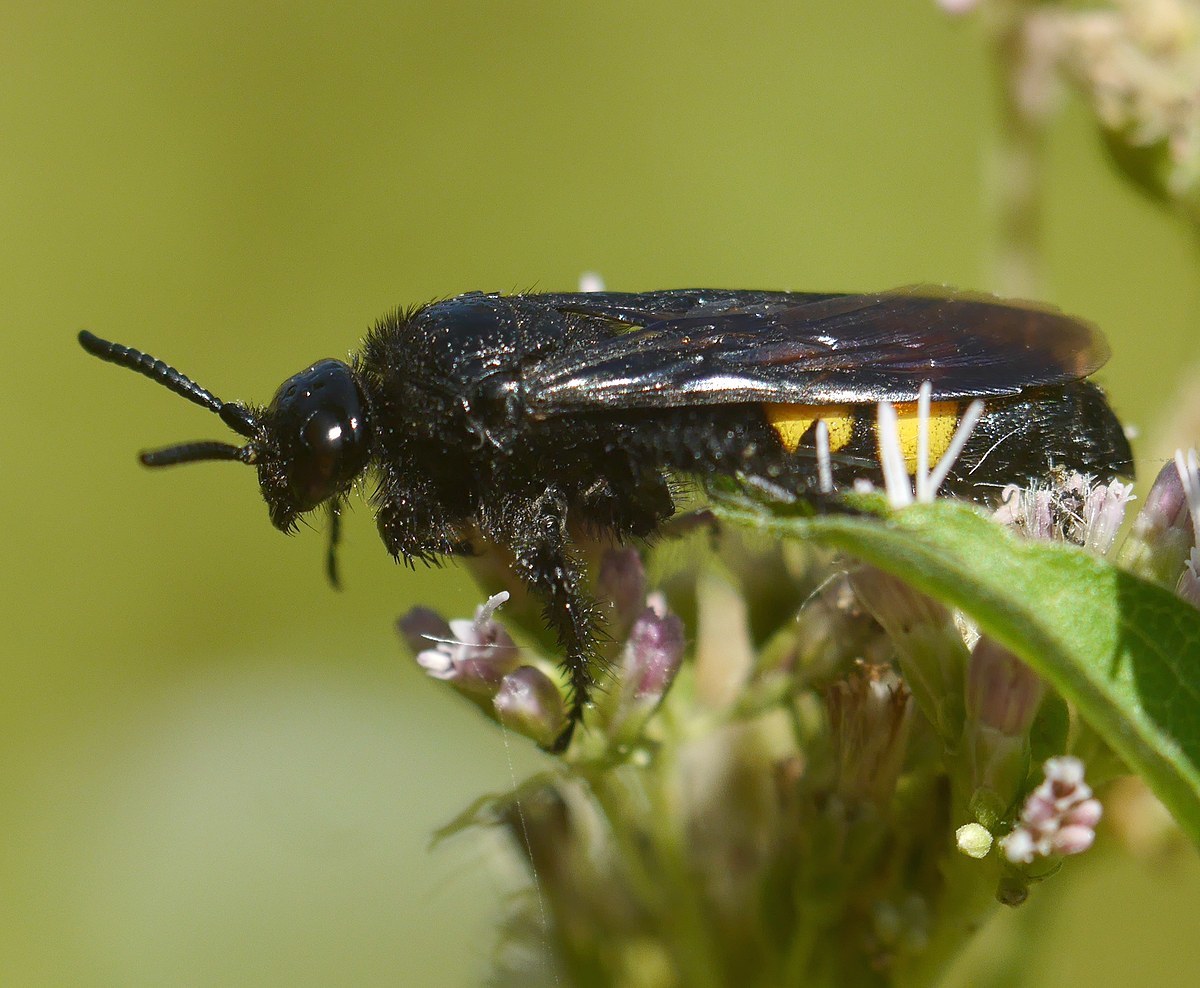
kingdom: Animalia
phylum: Arthropoda
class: Insecta
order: Hymenoptera
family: Scoliidae
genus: Scolia
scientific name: Scolia hirta
